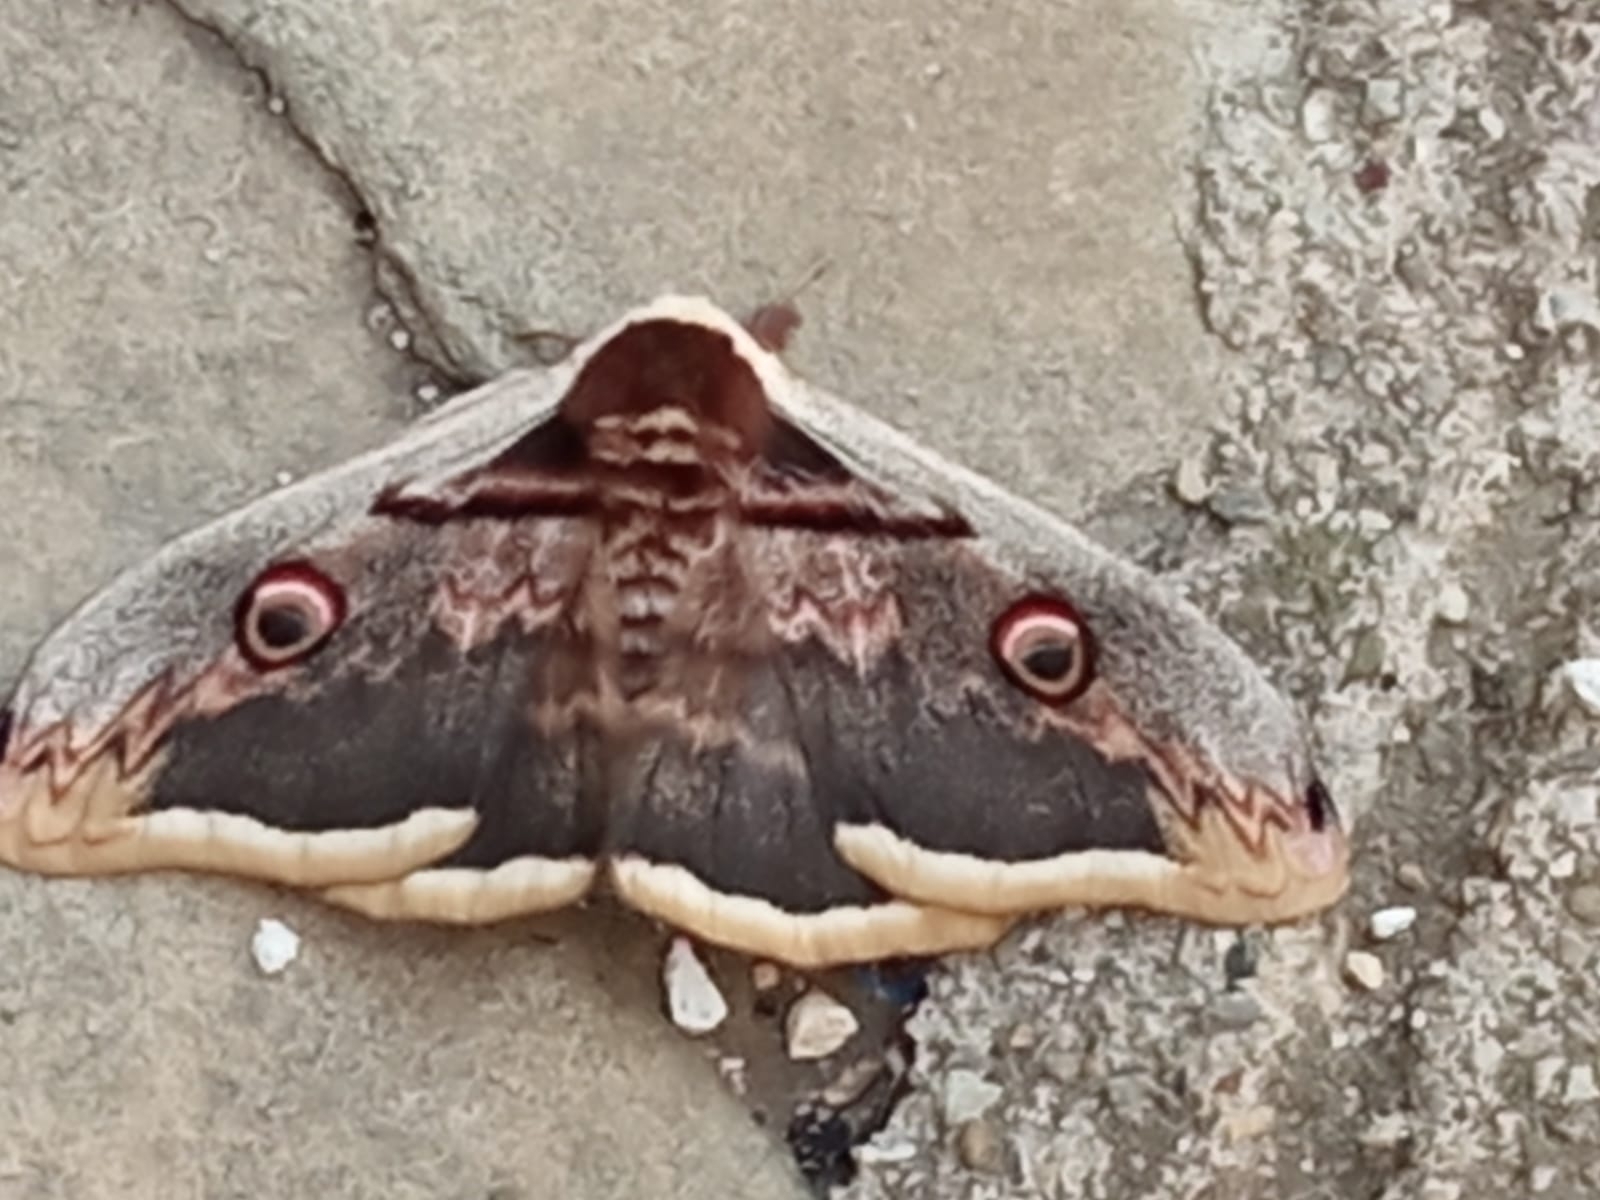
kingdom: Animalia
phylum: Arthropoda
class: Insecta
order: Lepidoptera
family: Saturniidae
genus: Saturnia
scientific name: Saturnia pyri
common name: Great peacock moth
